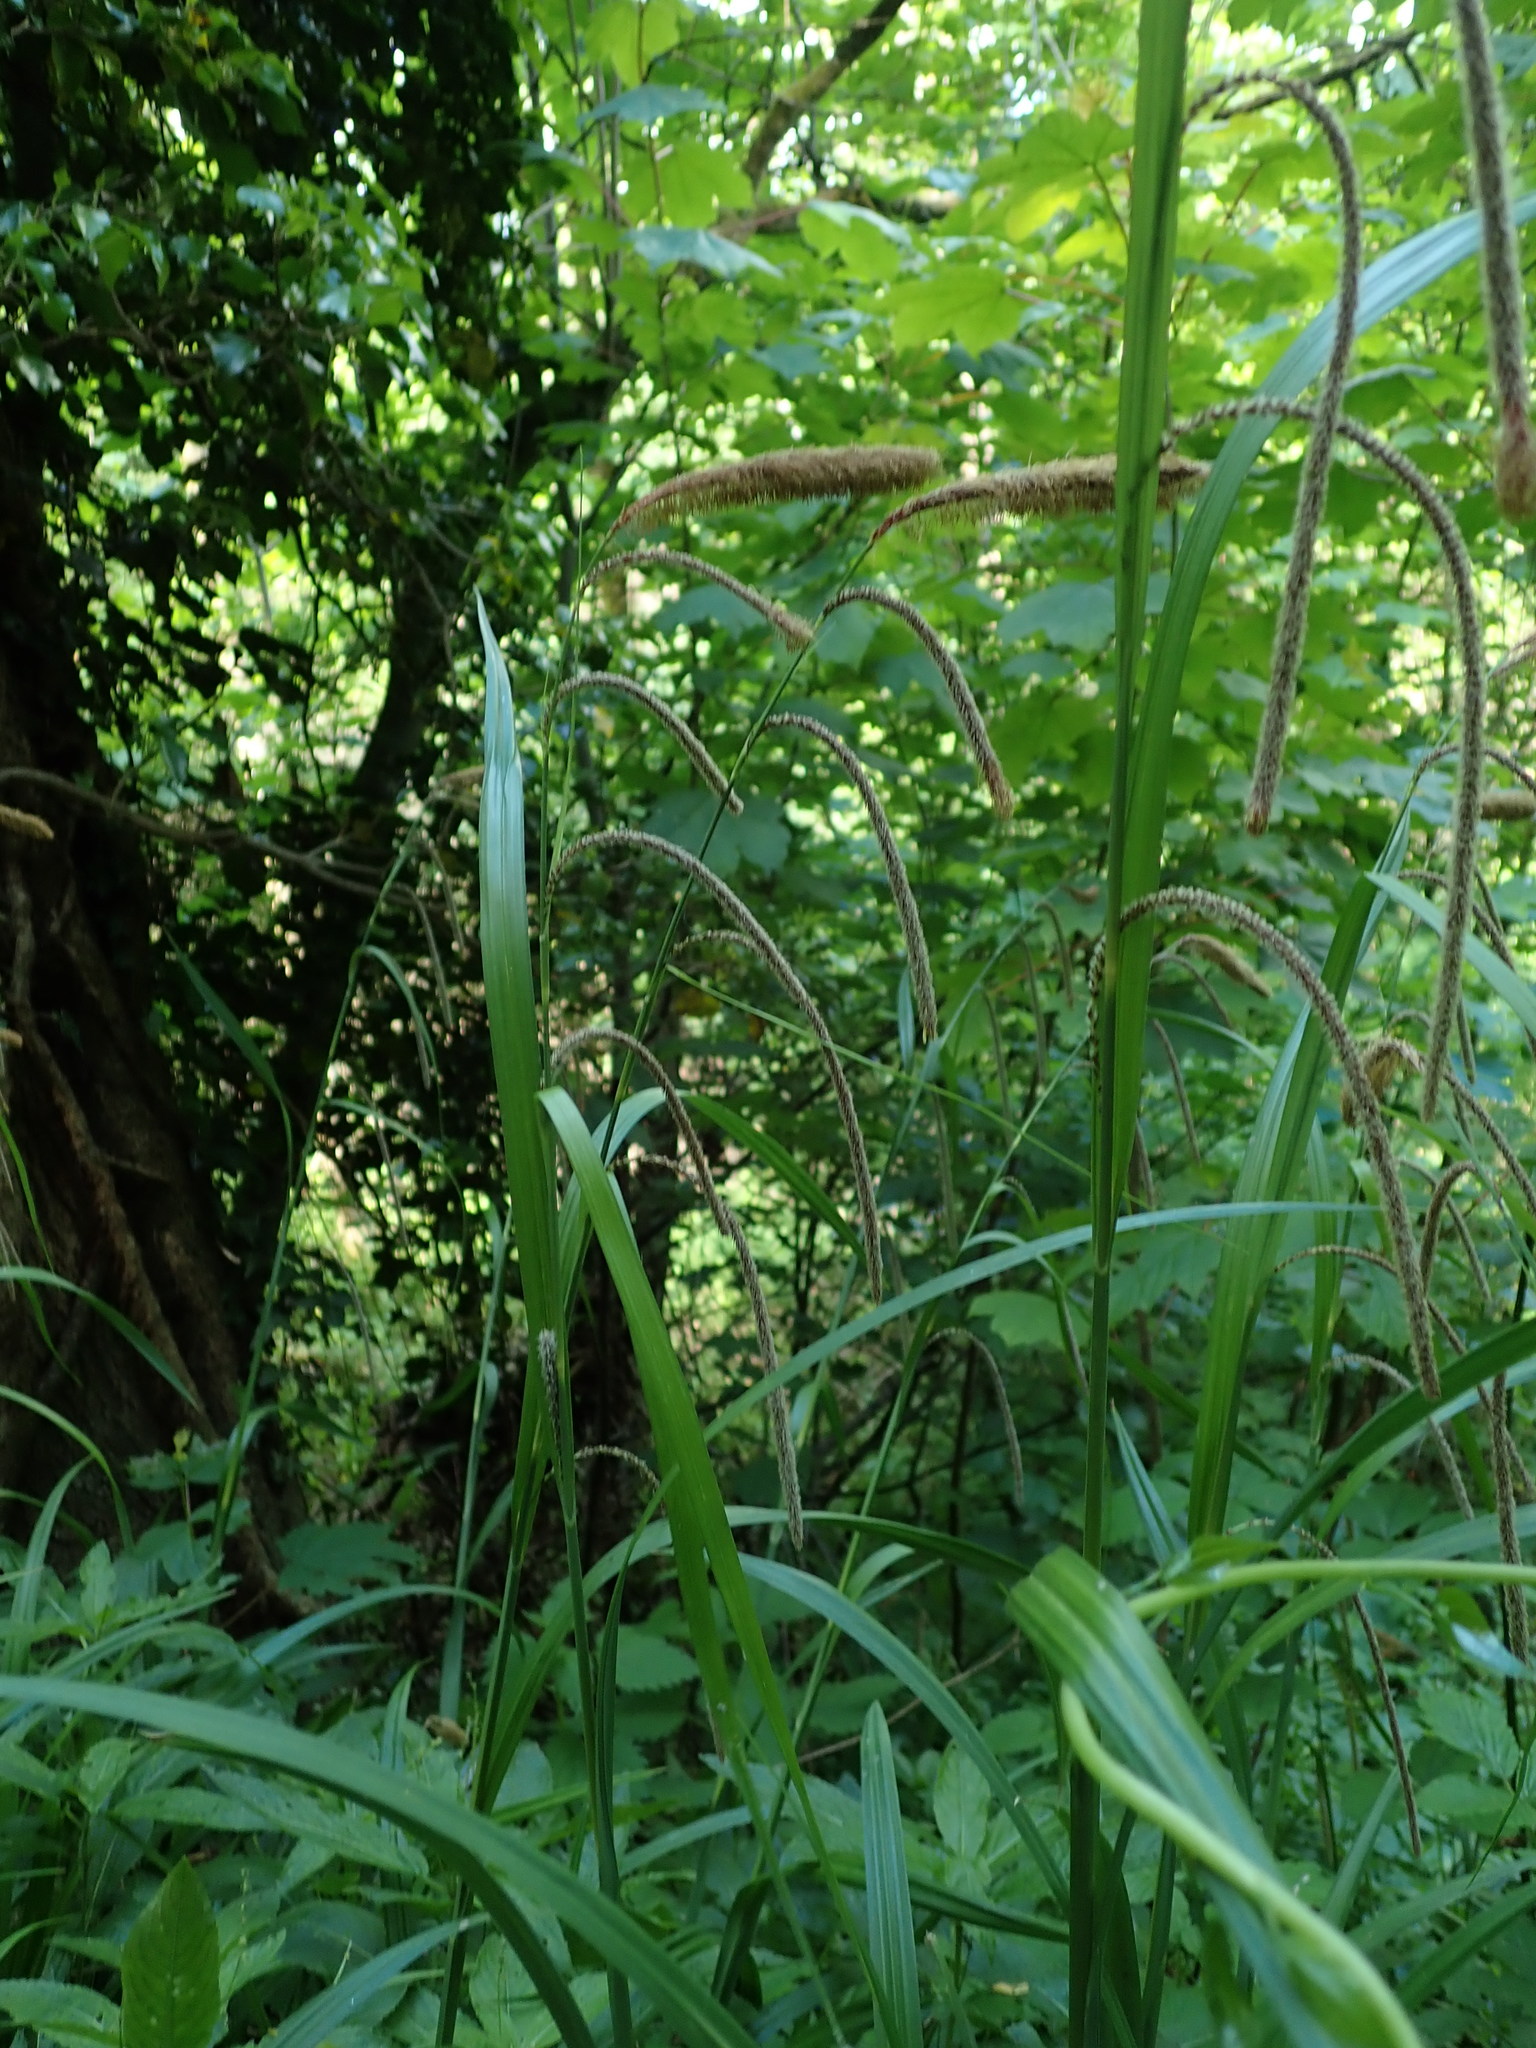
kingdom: Plantae
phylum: Tracheophyta
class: Liliopsida
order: Poales
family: Cyperaceae
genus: Carex
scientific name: Carex pendula
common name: Pendulous sedge
